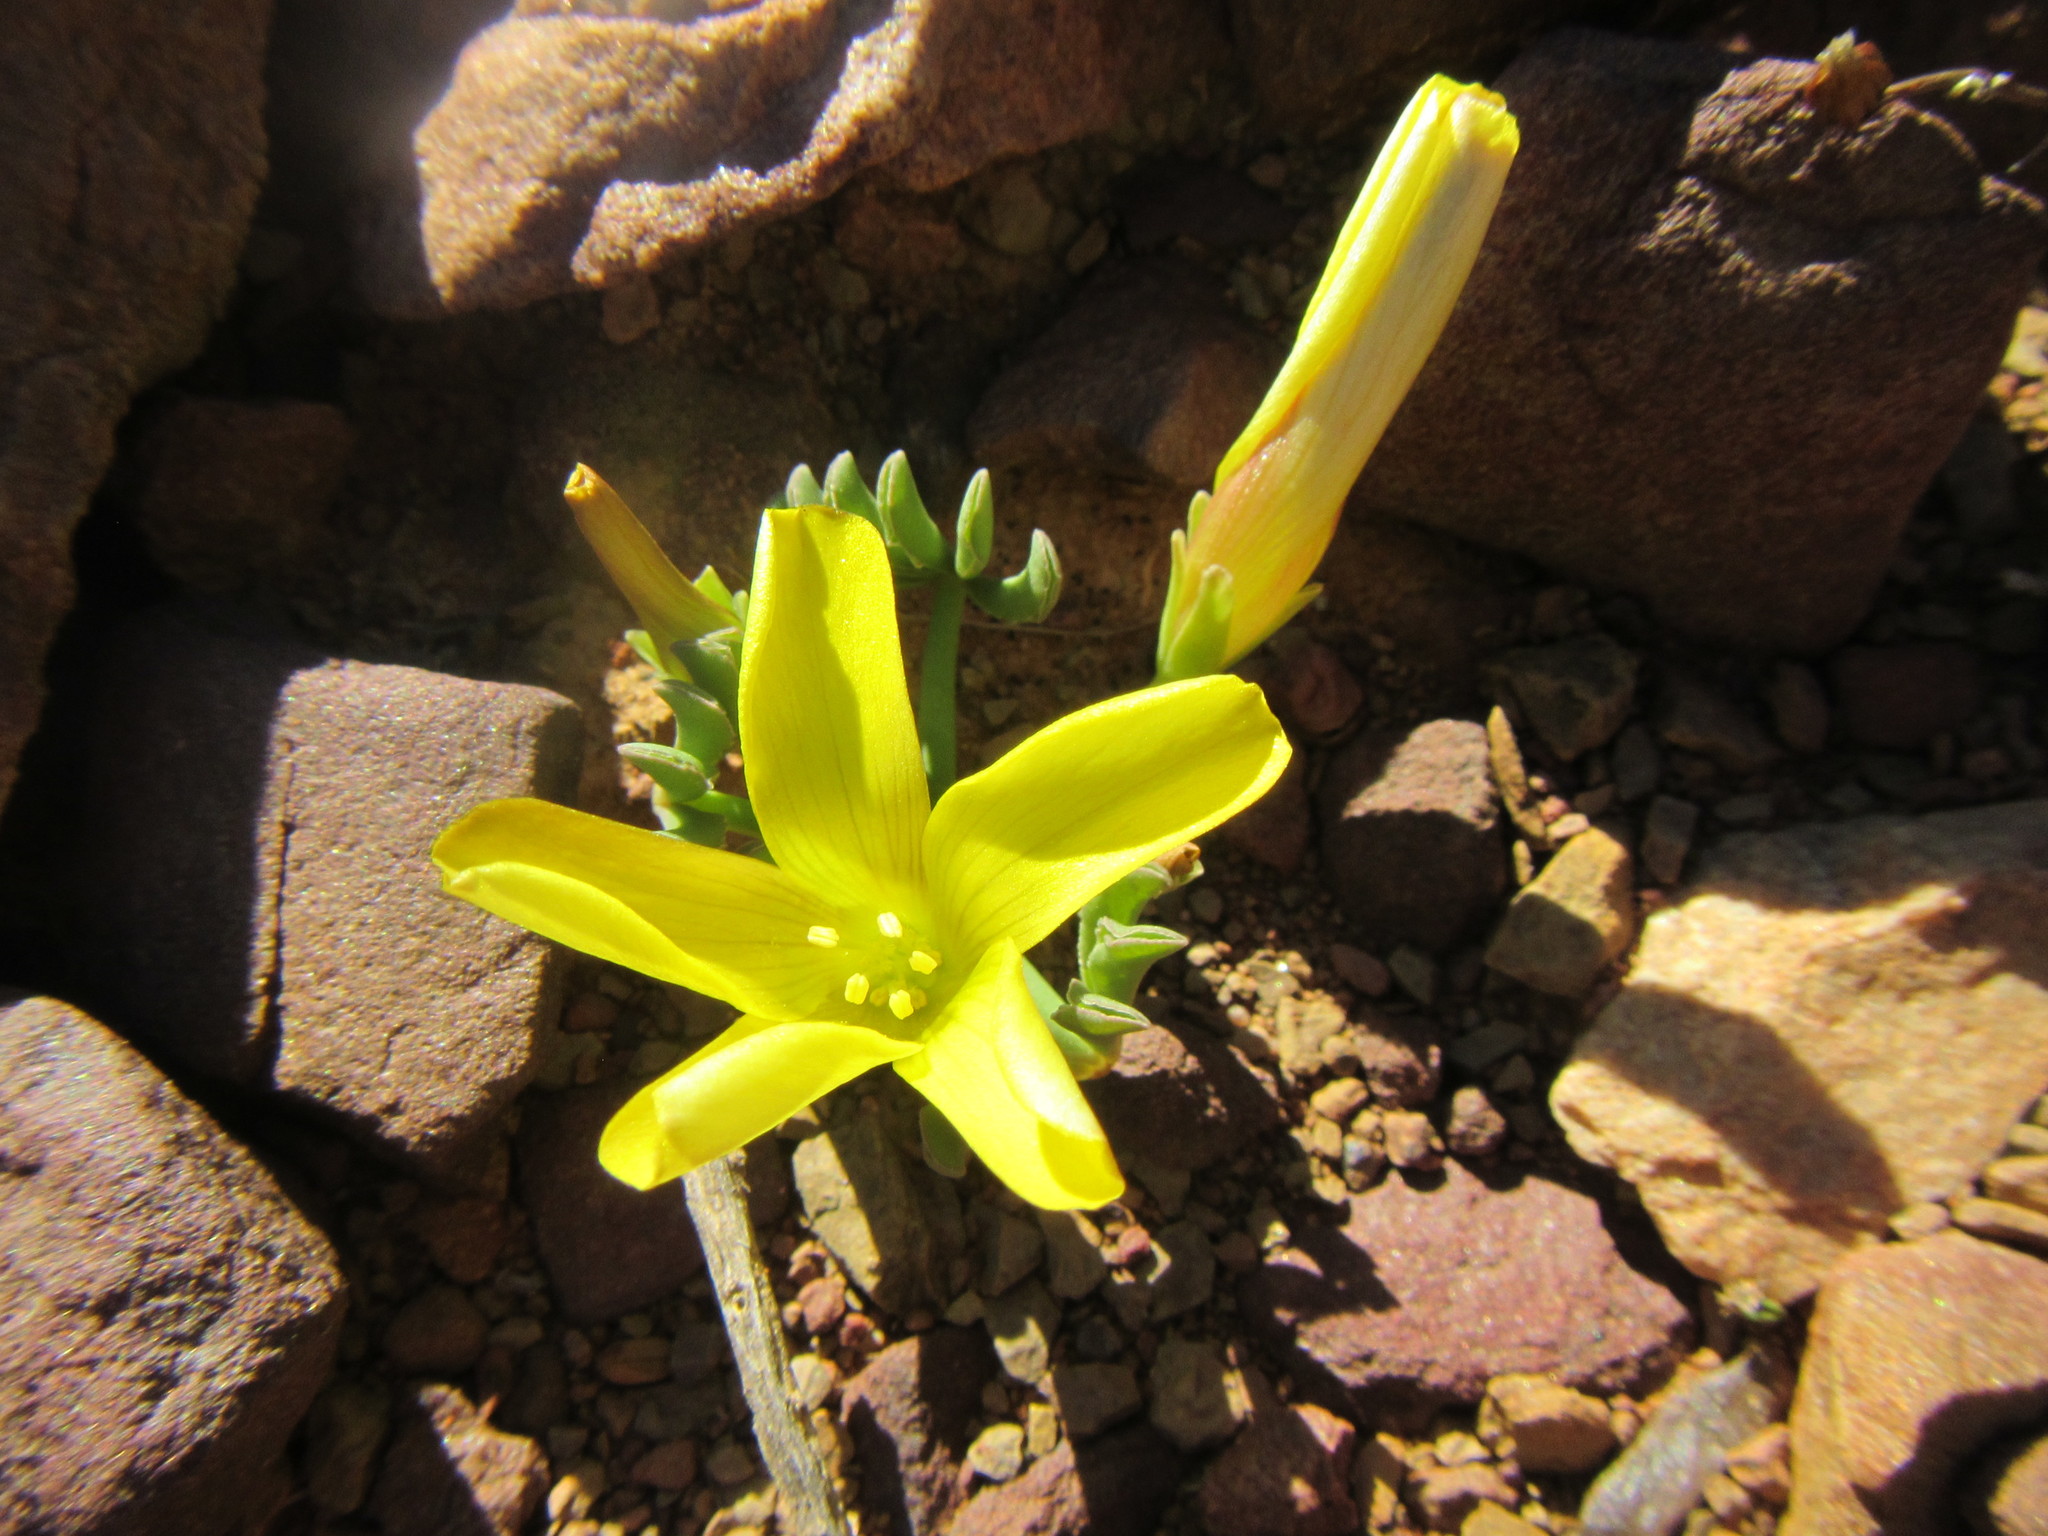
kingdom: Plantae
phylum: Tracheophyta
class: Magnoliopsida
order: Oxalidales
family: Oxalidaceae
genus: Oxalis
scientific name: Oxalis flava
